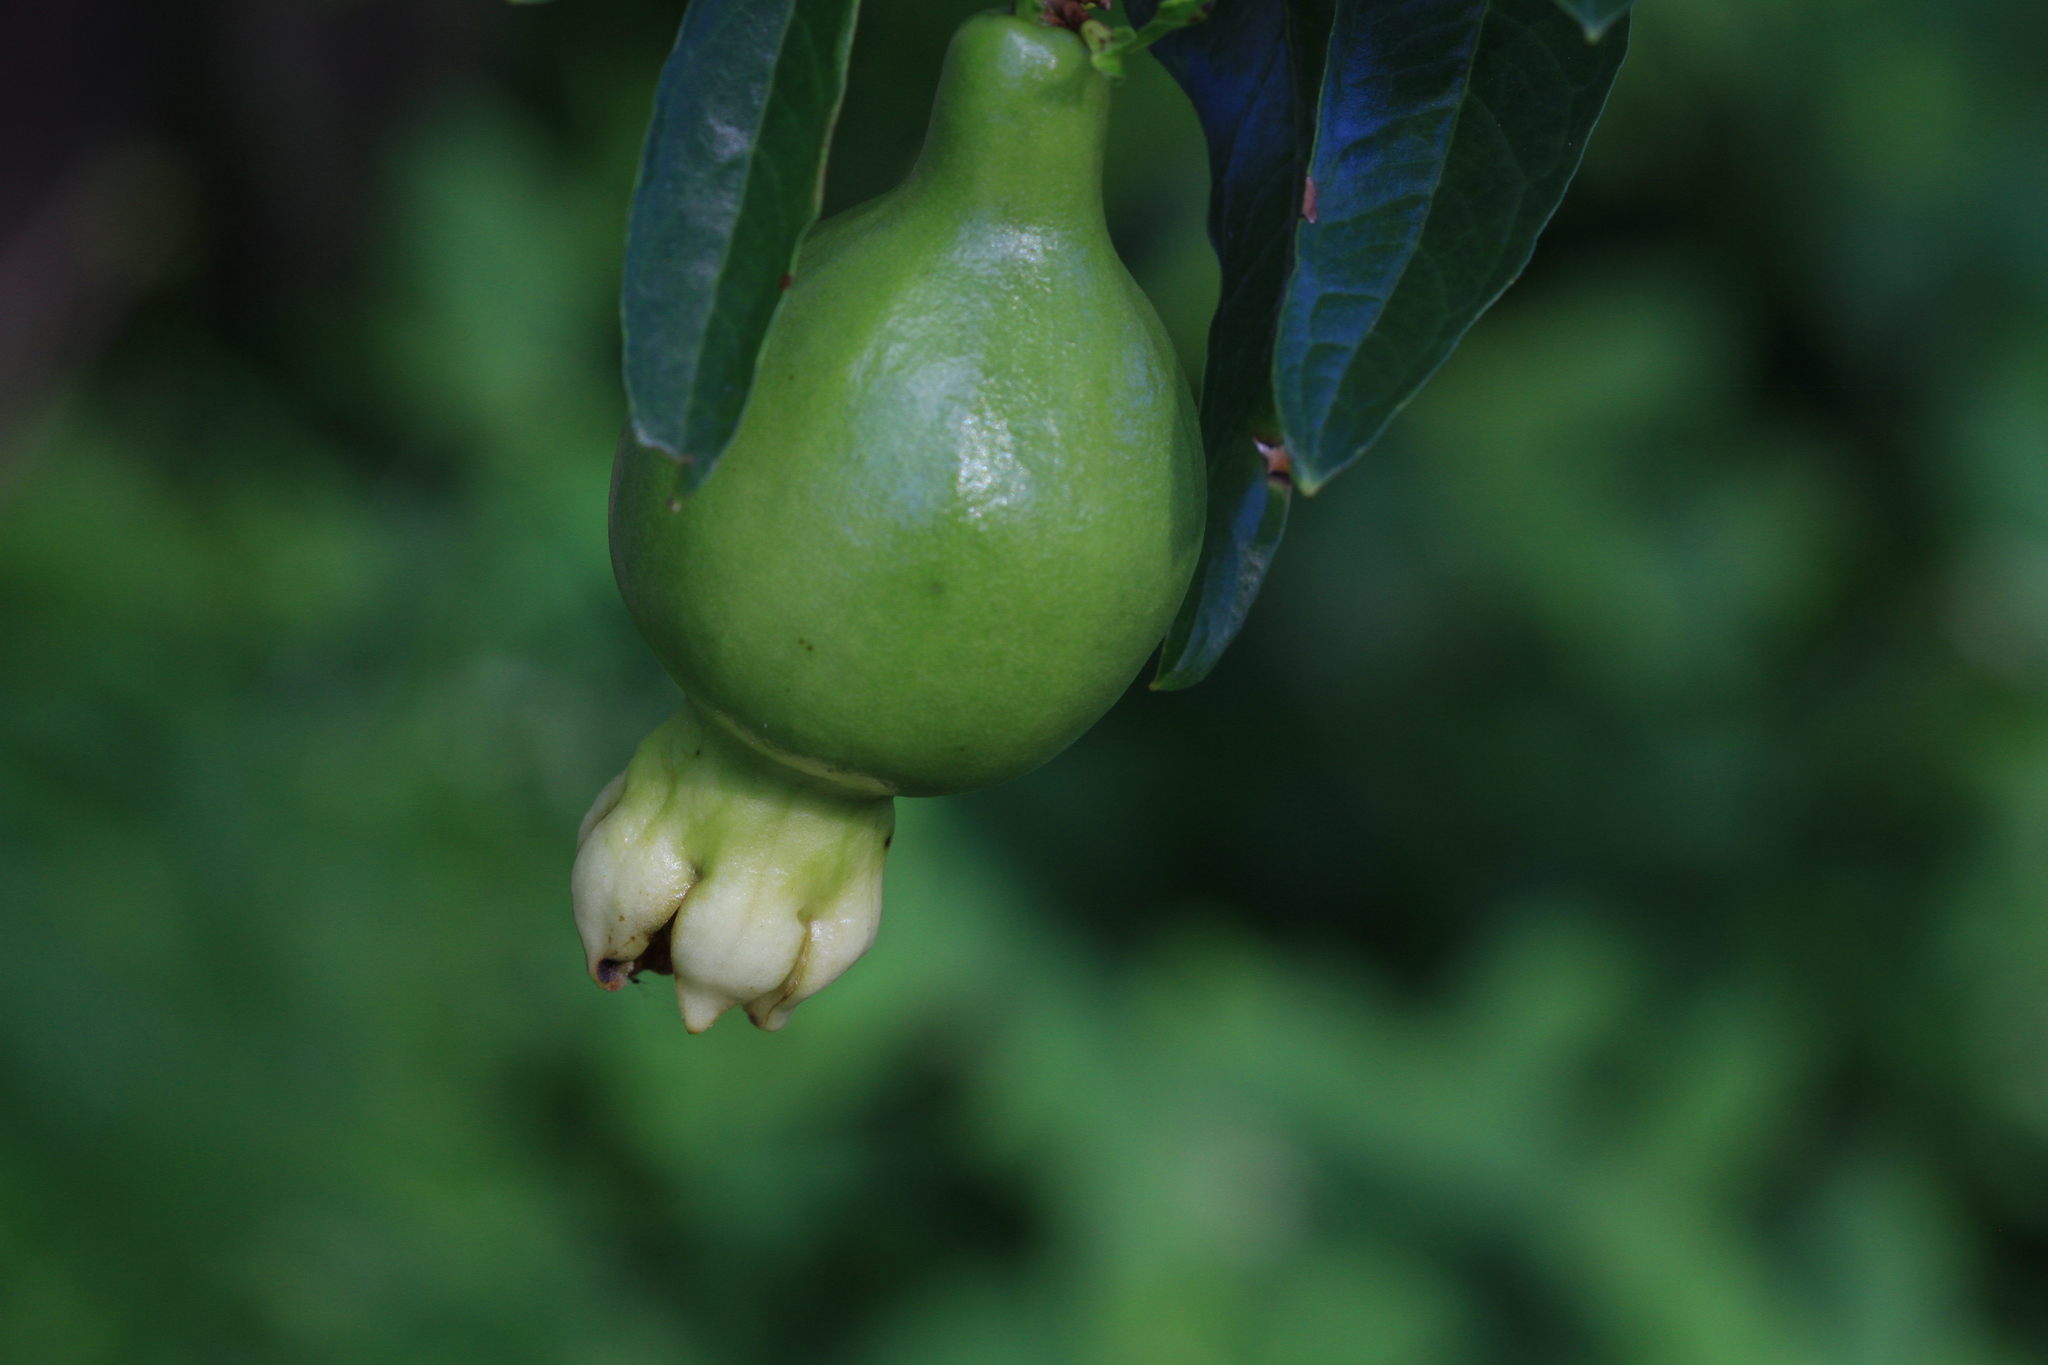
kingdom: Plantae
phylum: Tracheophyta
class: Magnoliopsida
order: Myrtales
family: Lythraceae
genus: Punica
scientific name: Punica granatum
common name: Pomegranate
